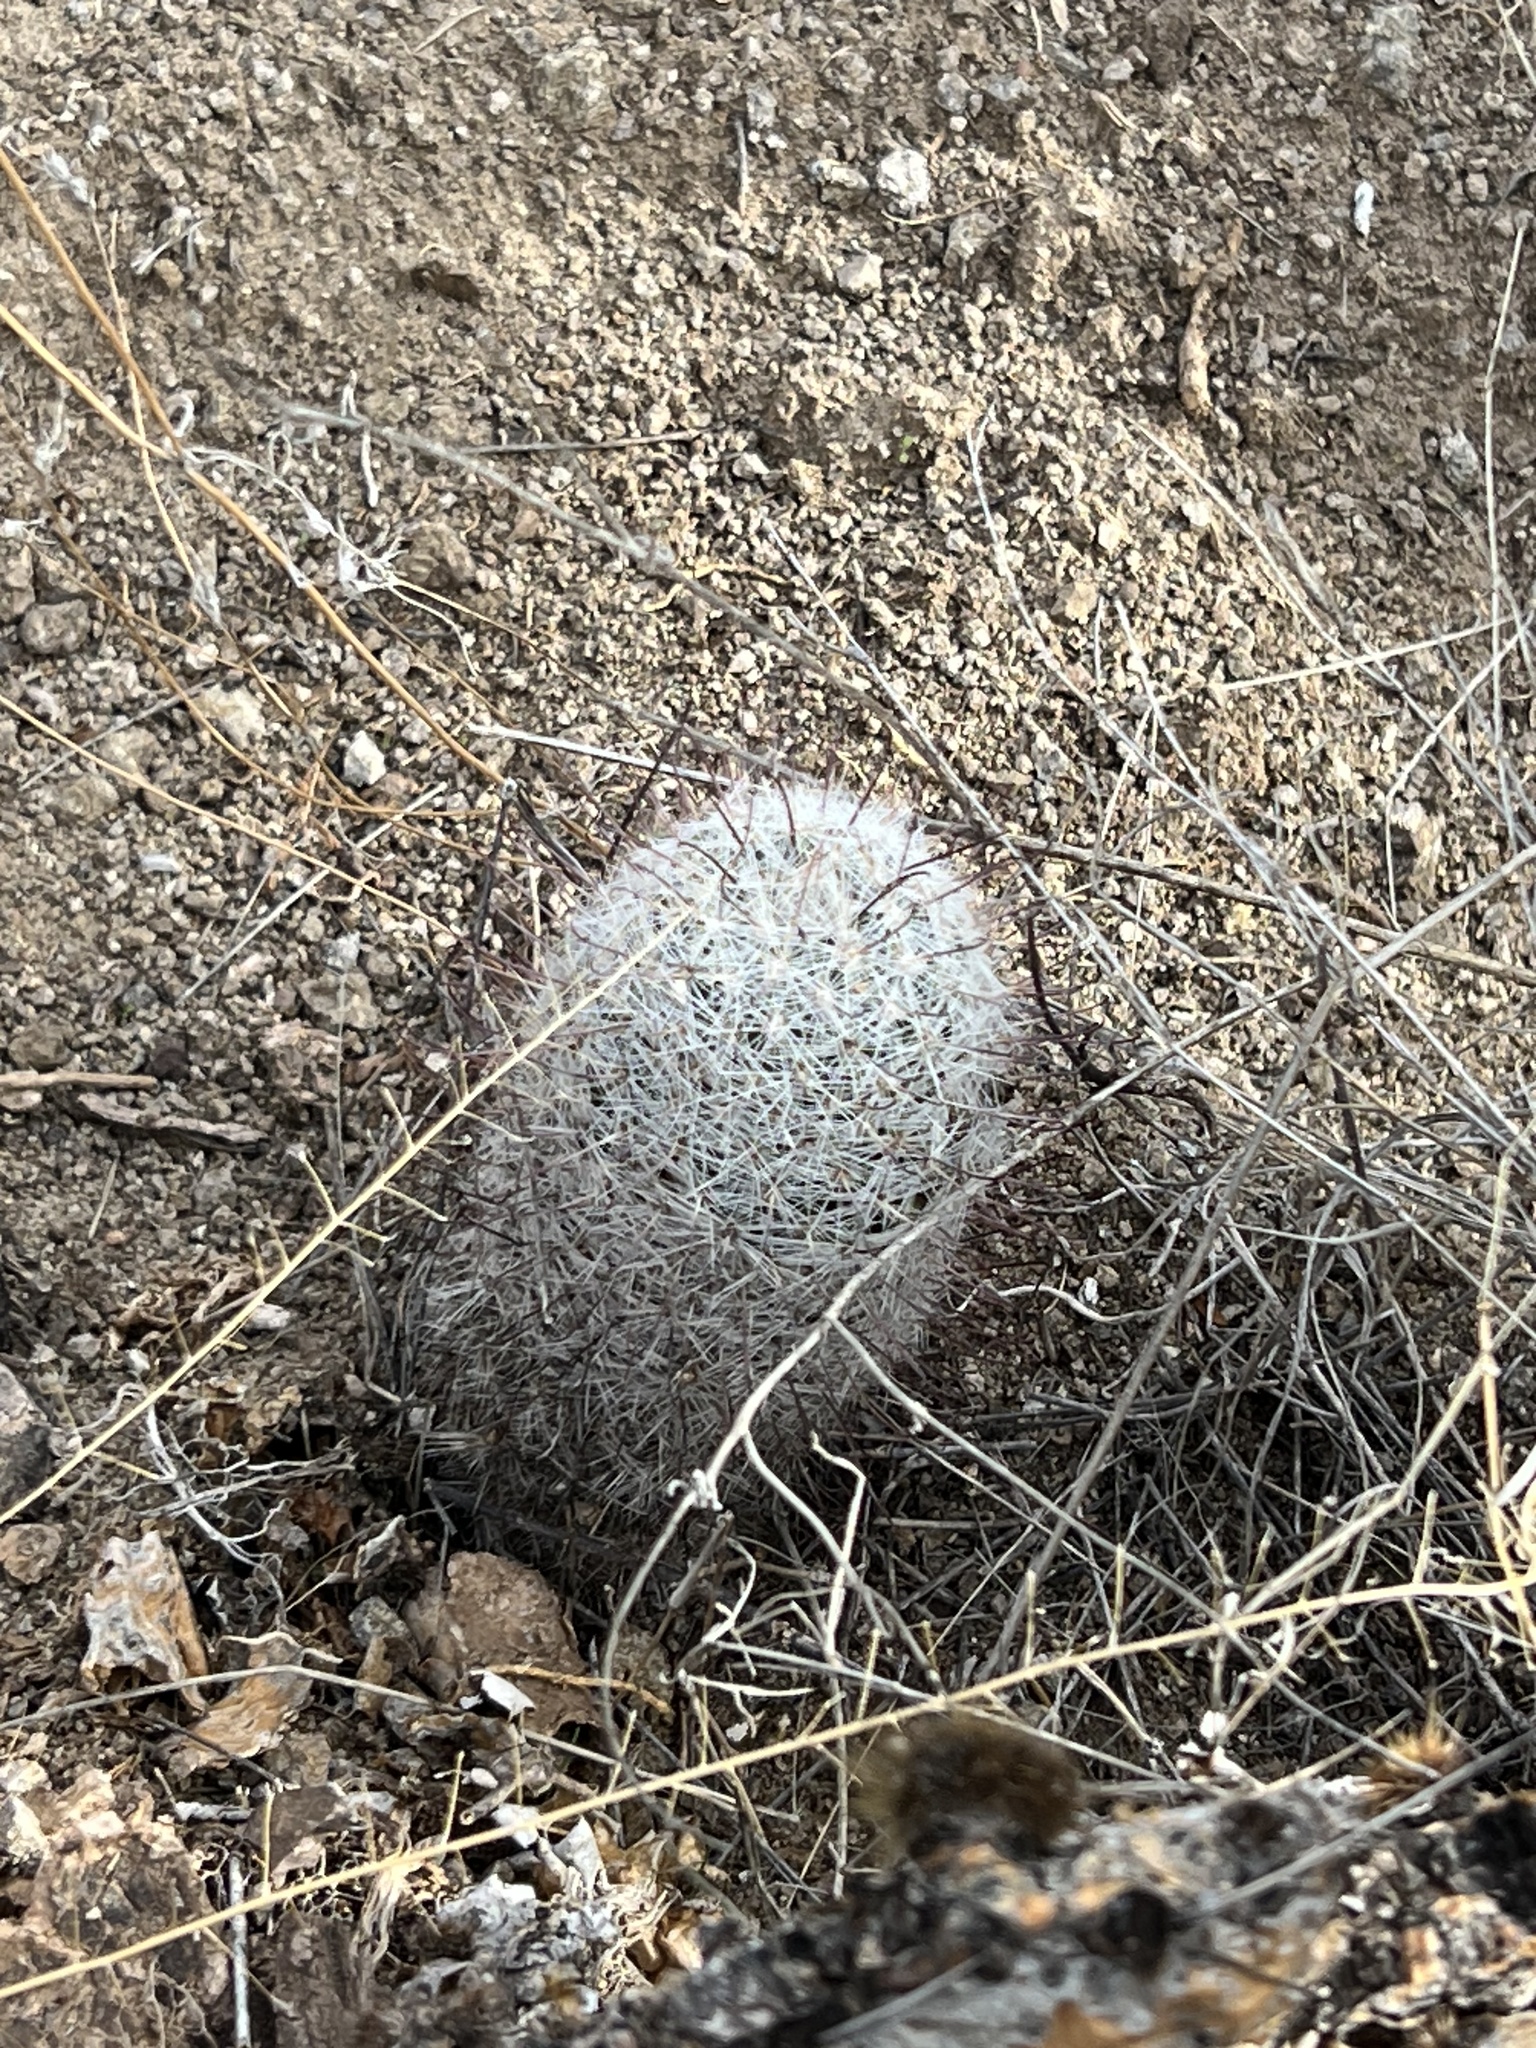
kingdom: Plantae
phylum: Tracheophyta
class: Magnoliopsida
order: Caryophyllales
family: Cactaceae
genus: Cochemiea
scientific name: Cochemiea grahamii
